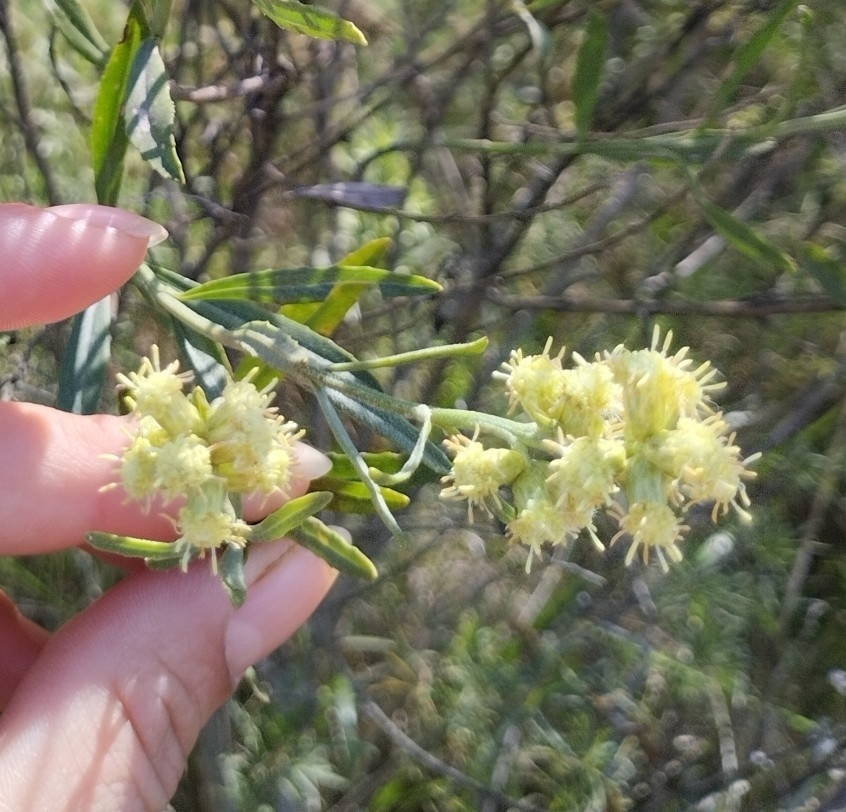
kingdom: Plantae
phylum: Tracheophyta
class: Magnoliopsida
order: Asterales
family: Asteraceae
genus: Baccharis
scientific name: Baccharis spicata
